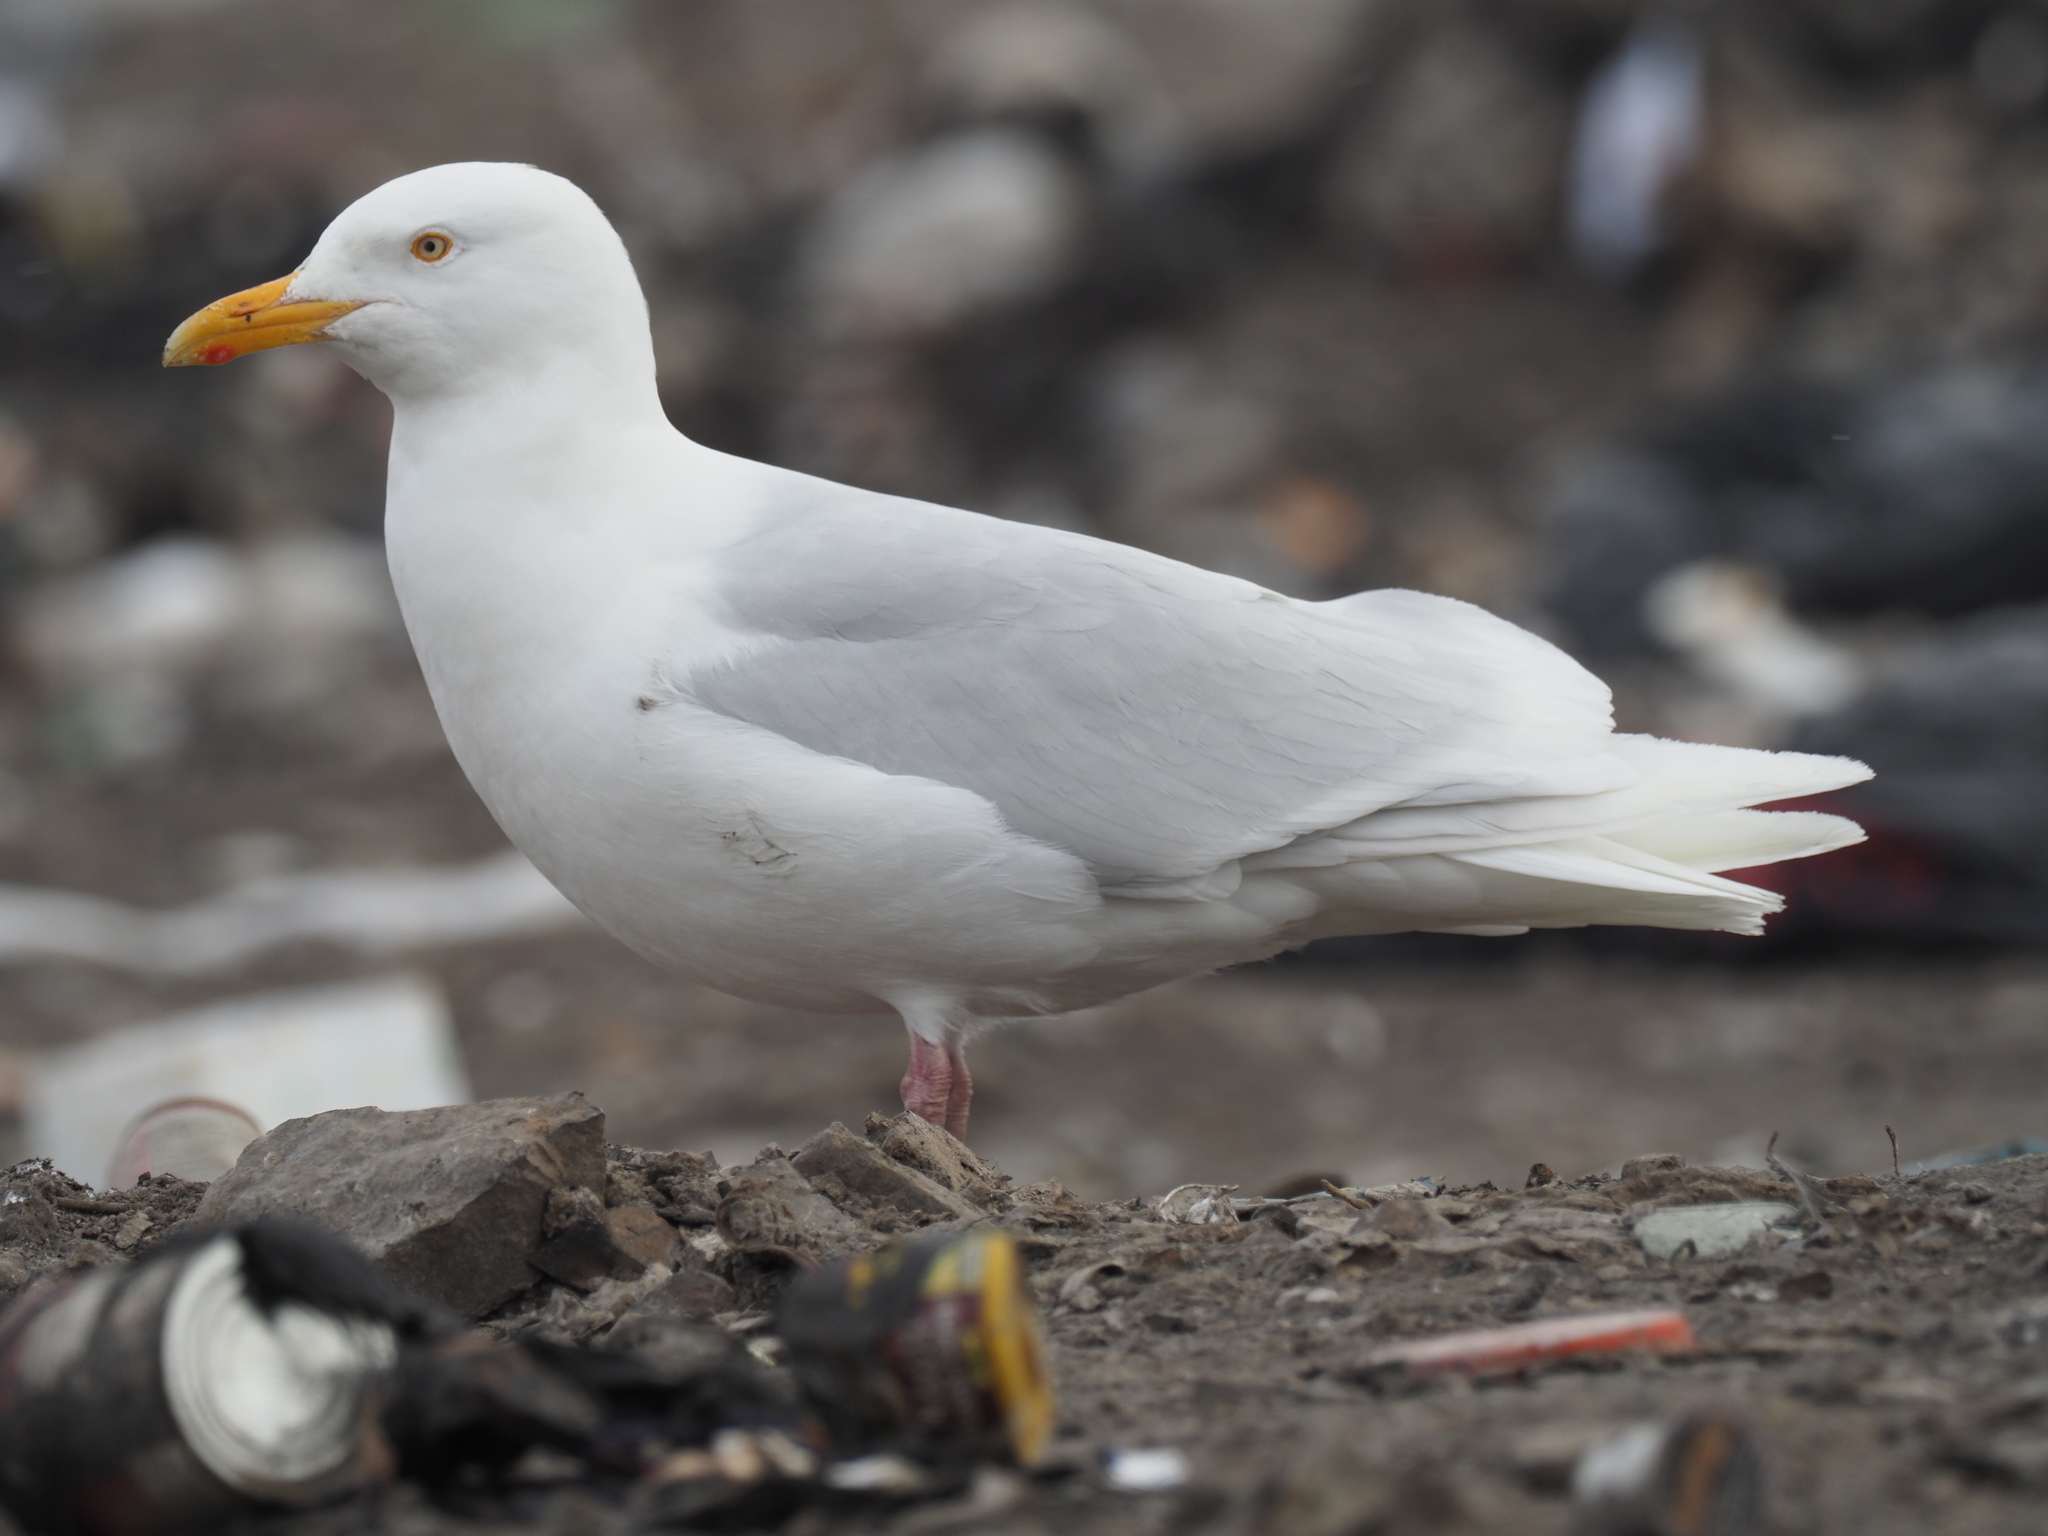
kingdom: Animalia
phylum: Chordata
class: Aves
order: Charadriiformes
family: Laridae
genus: Larus
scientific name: Larus hyperboreus
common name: Glaucous gull
